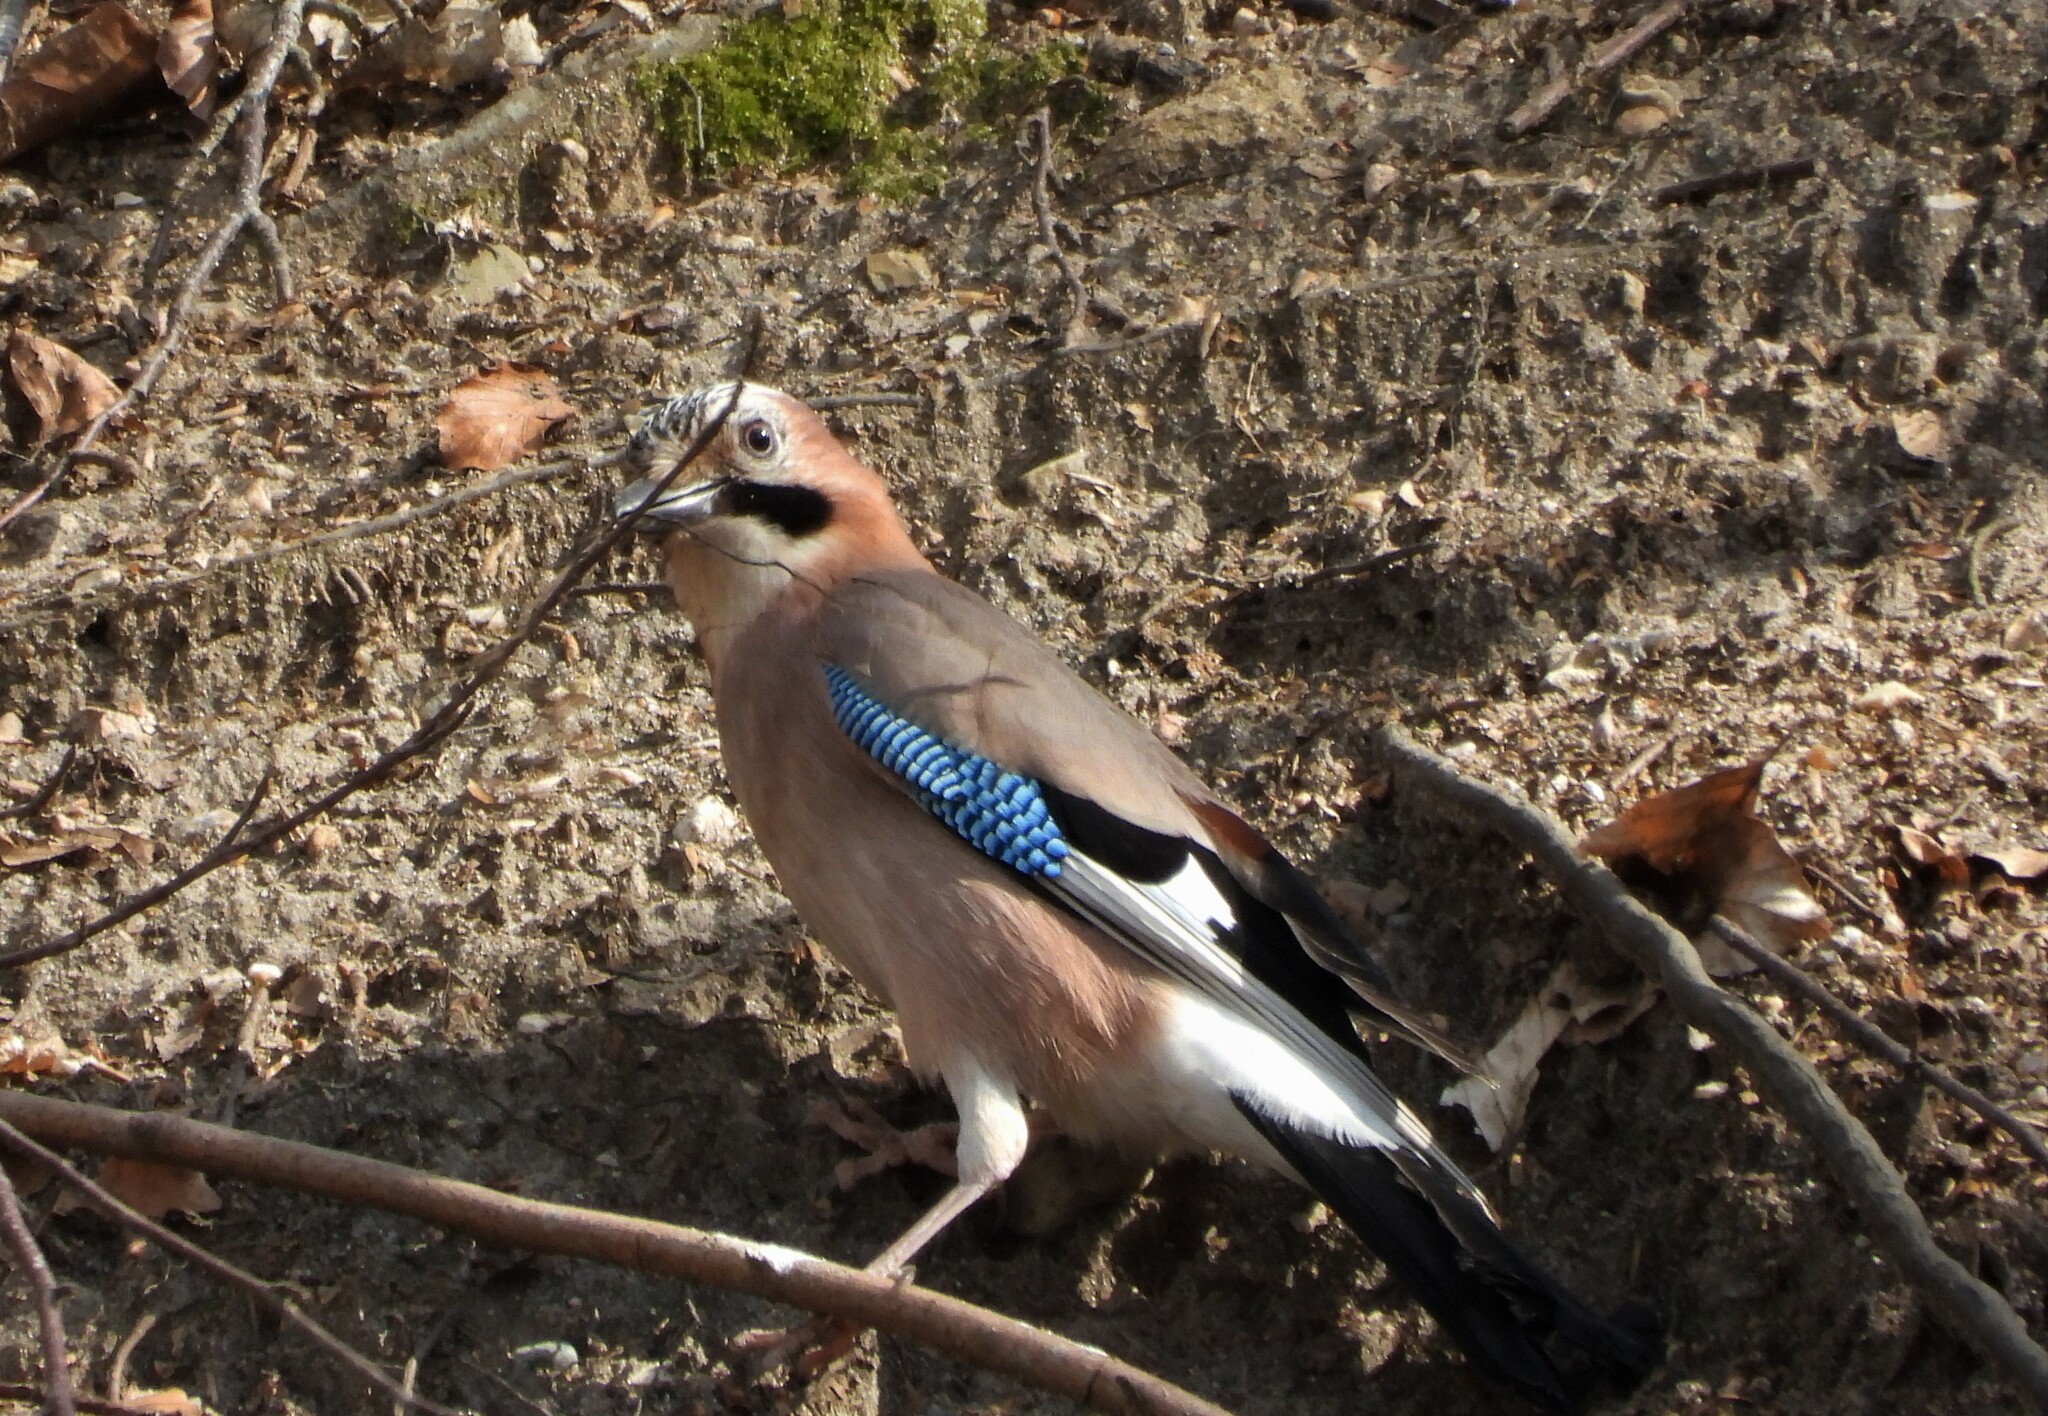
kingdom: Animalia
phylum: Chordata
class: Aves
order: Passeriformes
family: Corvidae
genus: Garrulus
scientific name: Garrulus glandarius
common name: Eurasian jay
